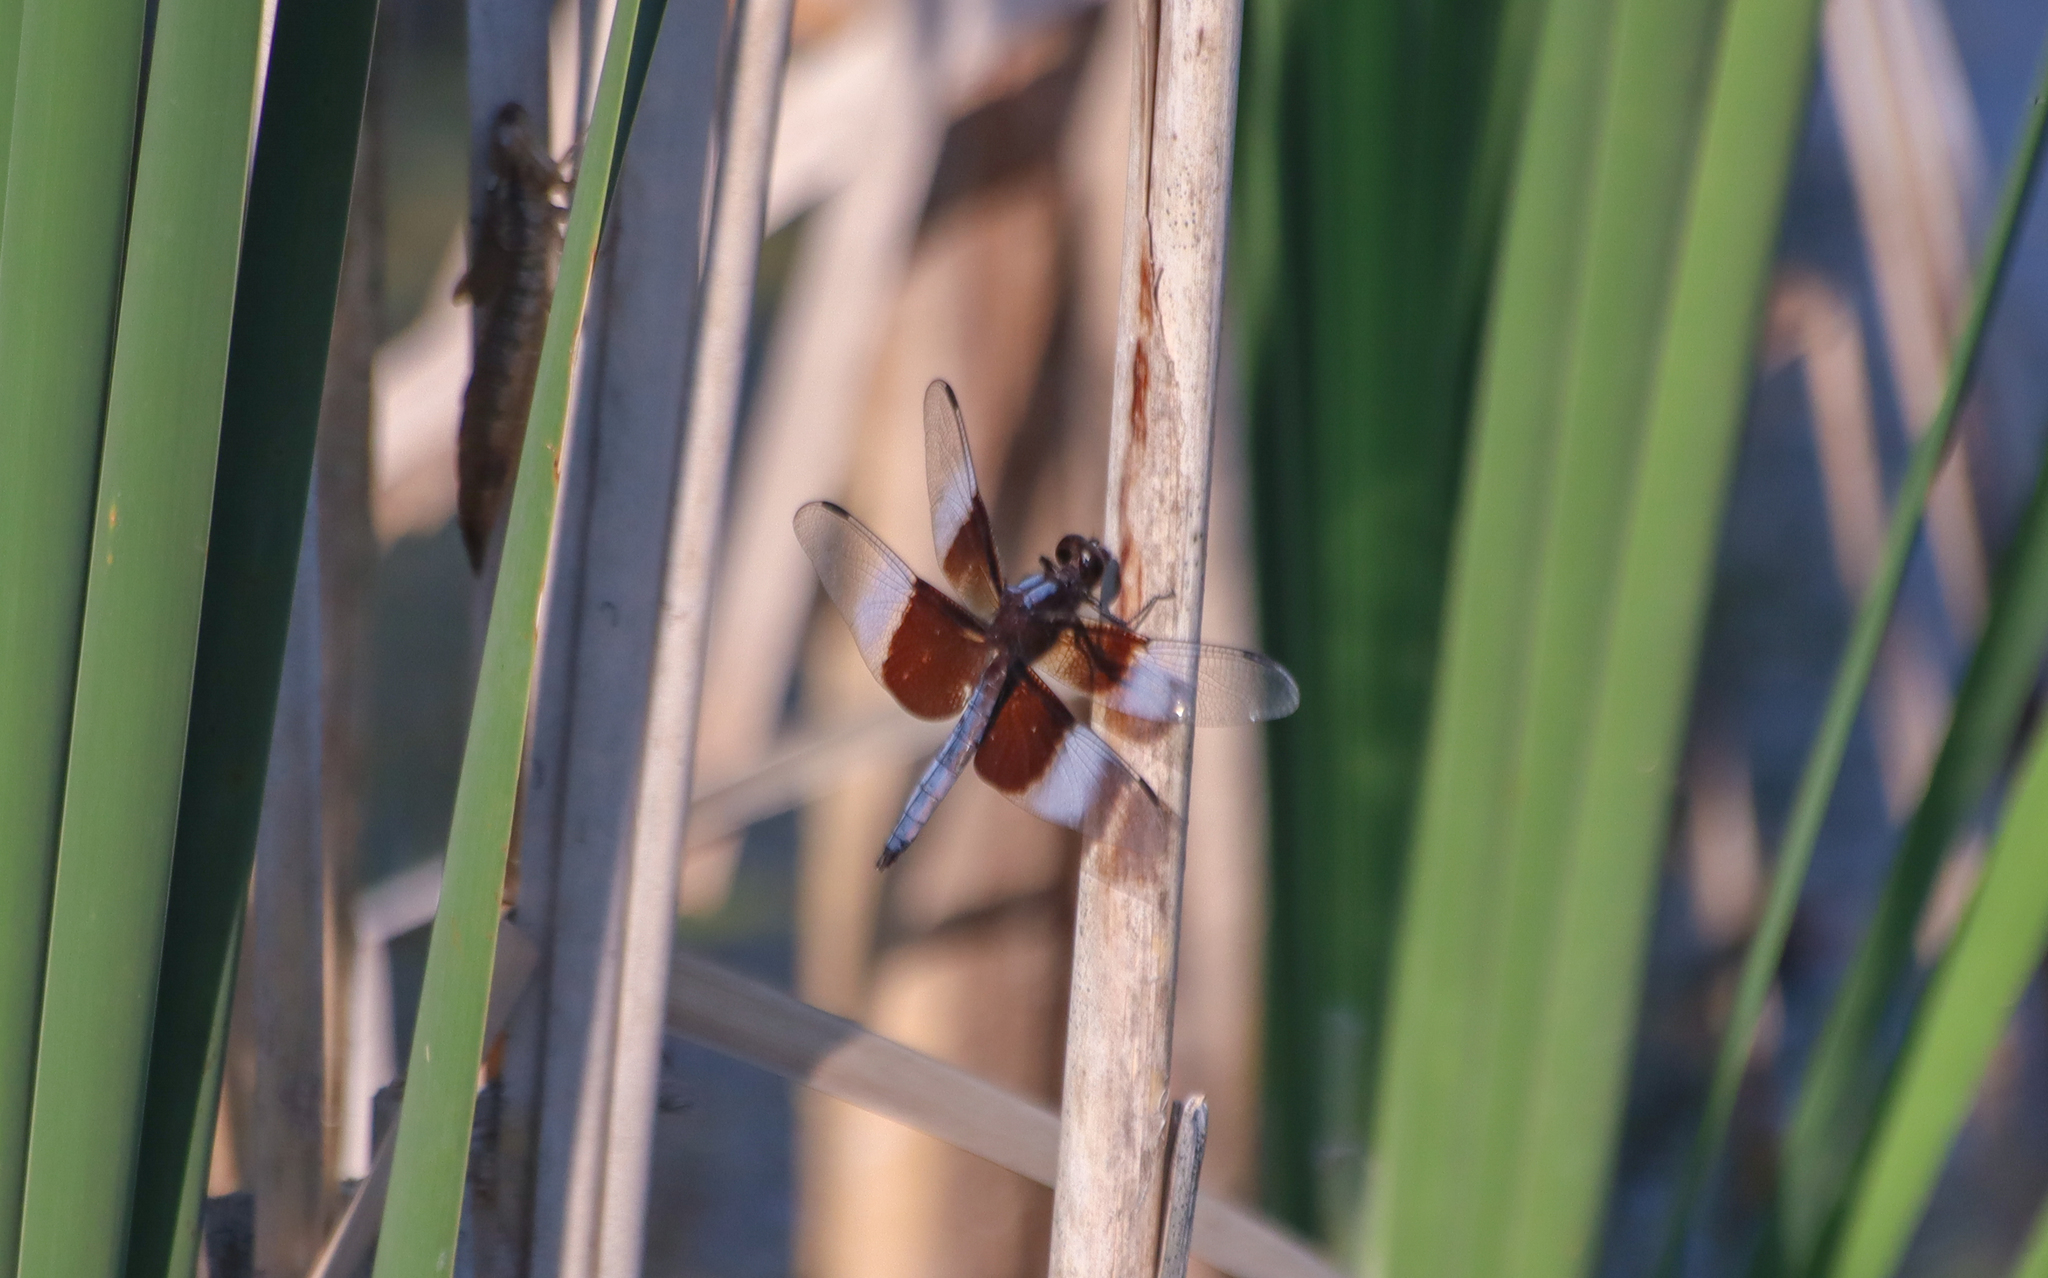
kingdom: Animalia
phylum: Arthropoda
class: Insecta
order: Odonata
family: Libellulidae
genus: Libellula
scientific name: Libellula luctuosa
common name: Widow skimmer
